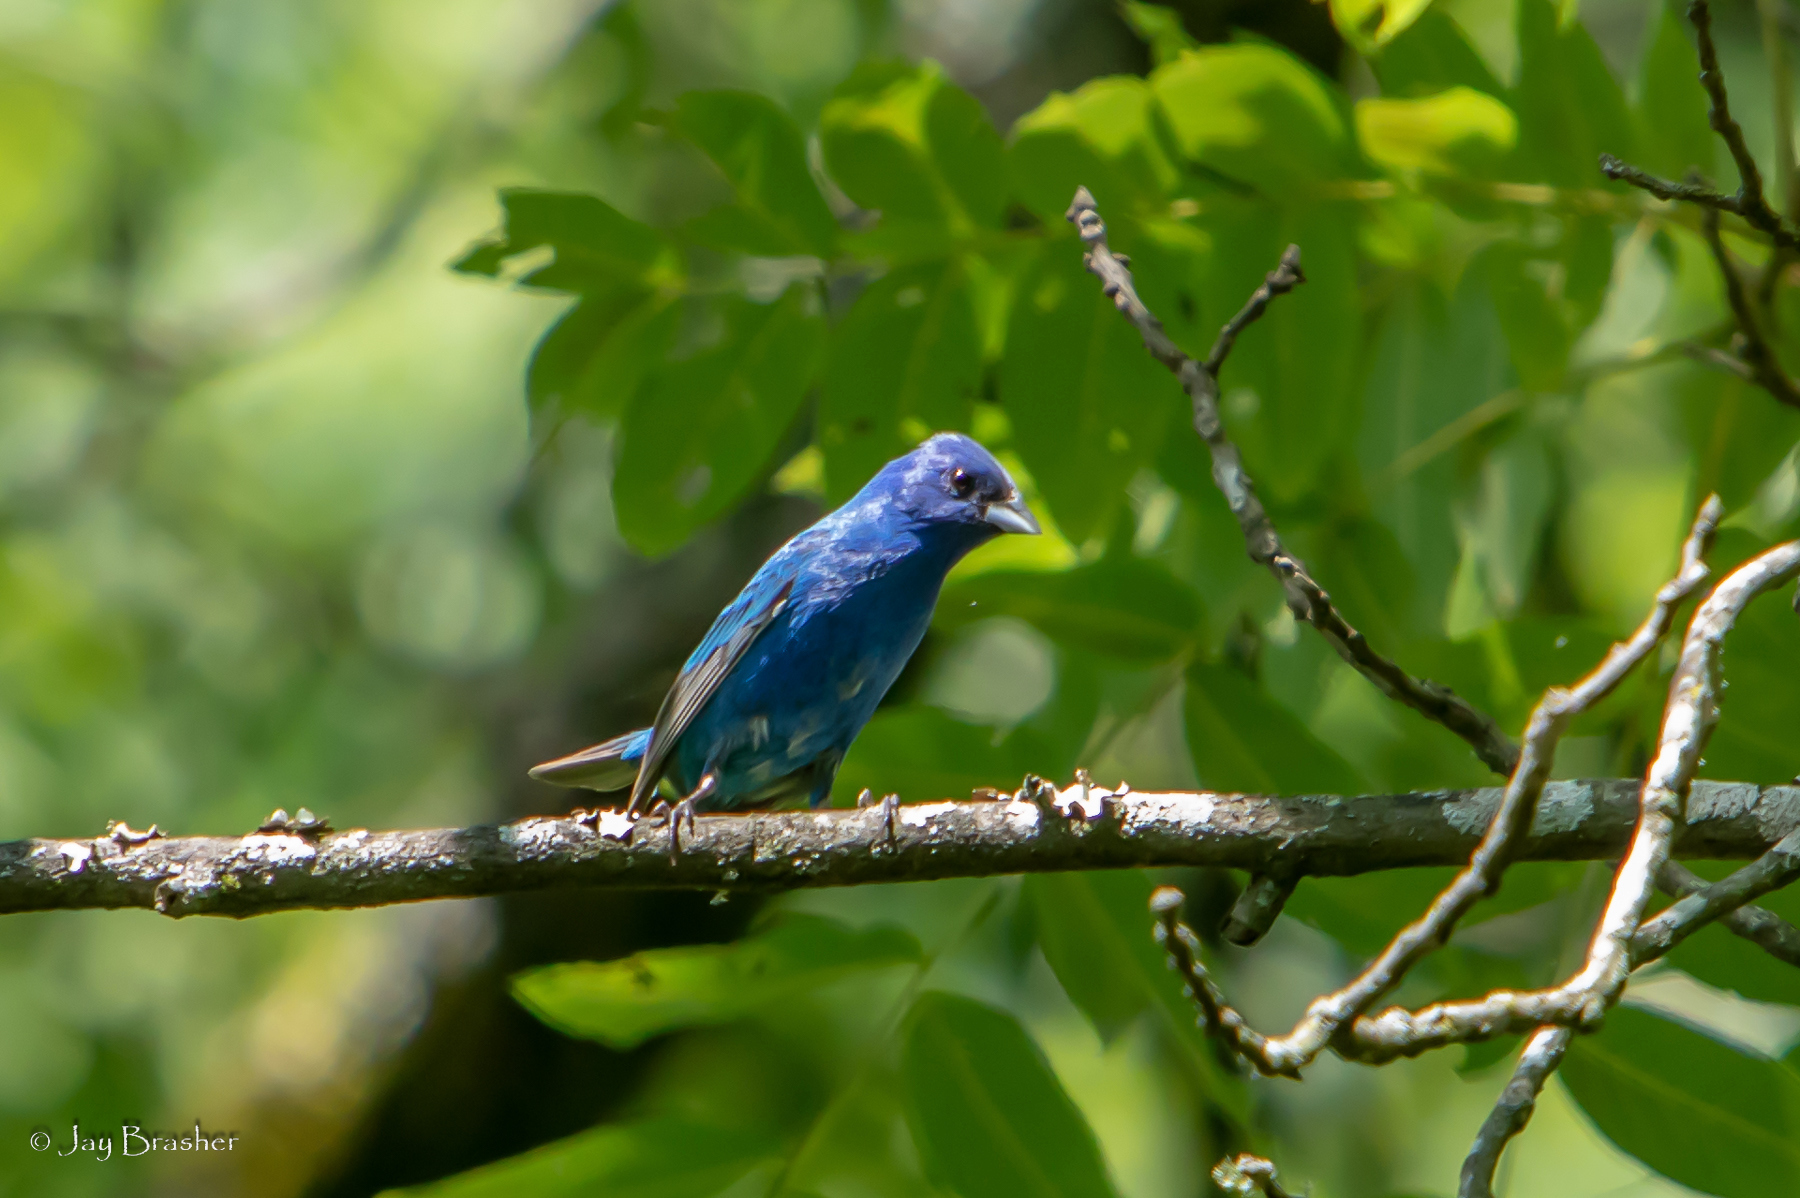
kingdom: Animalia
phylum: Chordata
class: Aves
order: Passeriformes
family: Cardinalidae
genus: Passerina
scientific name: Passerina cyanea
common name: Indigo bunting
